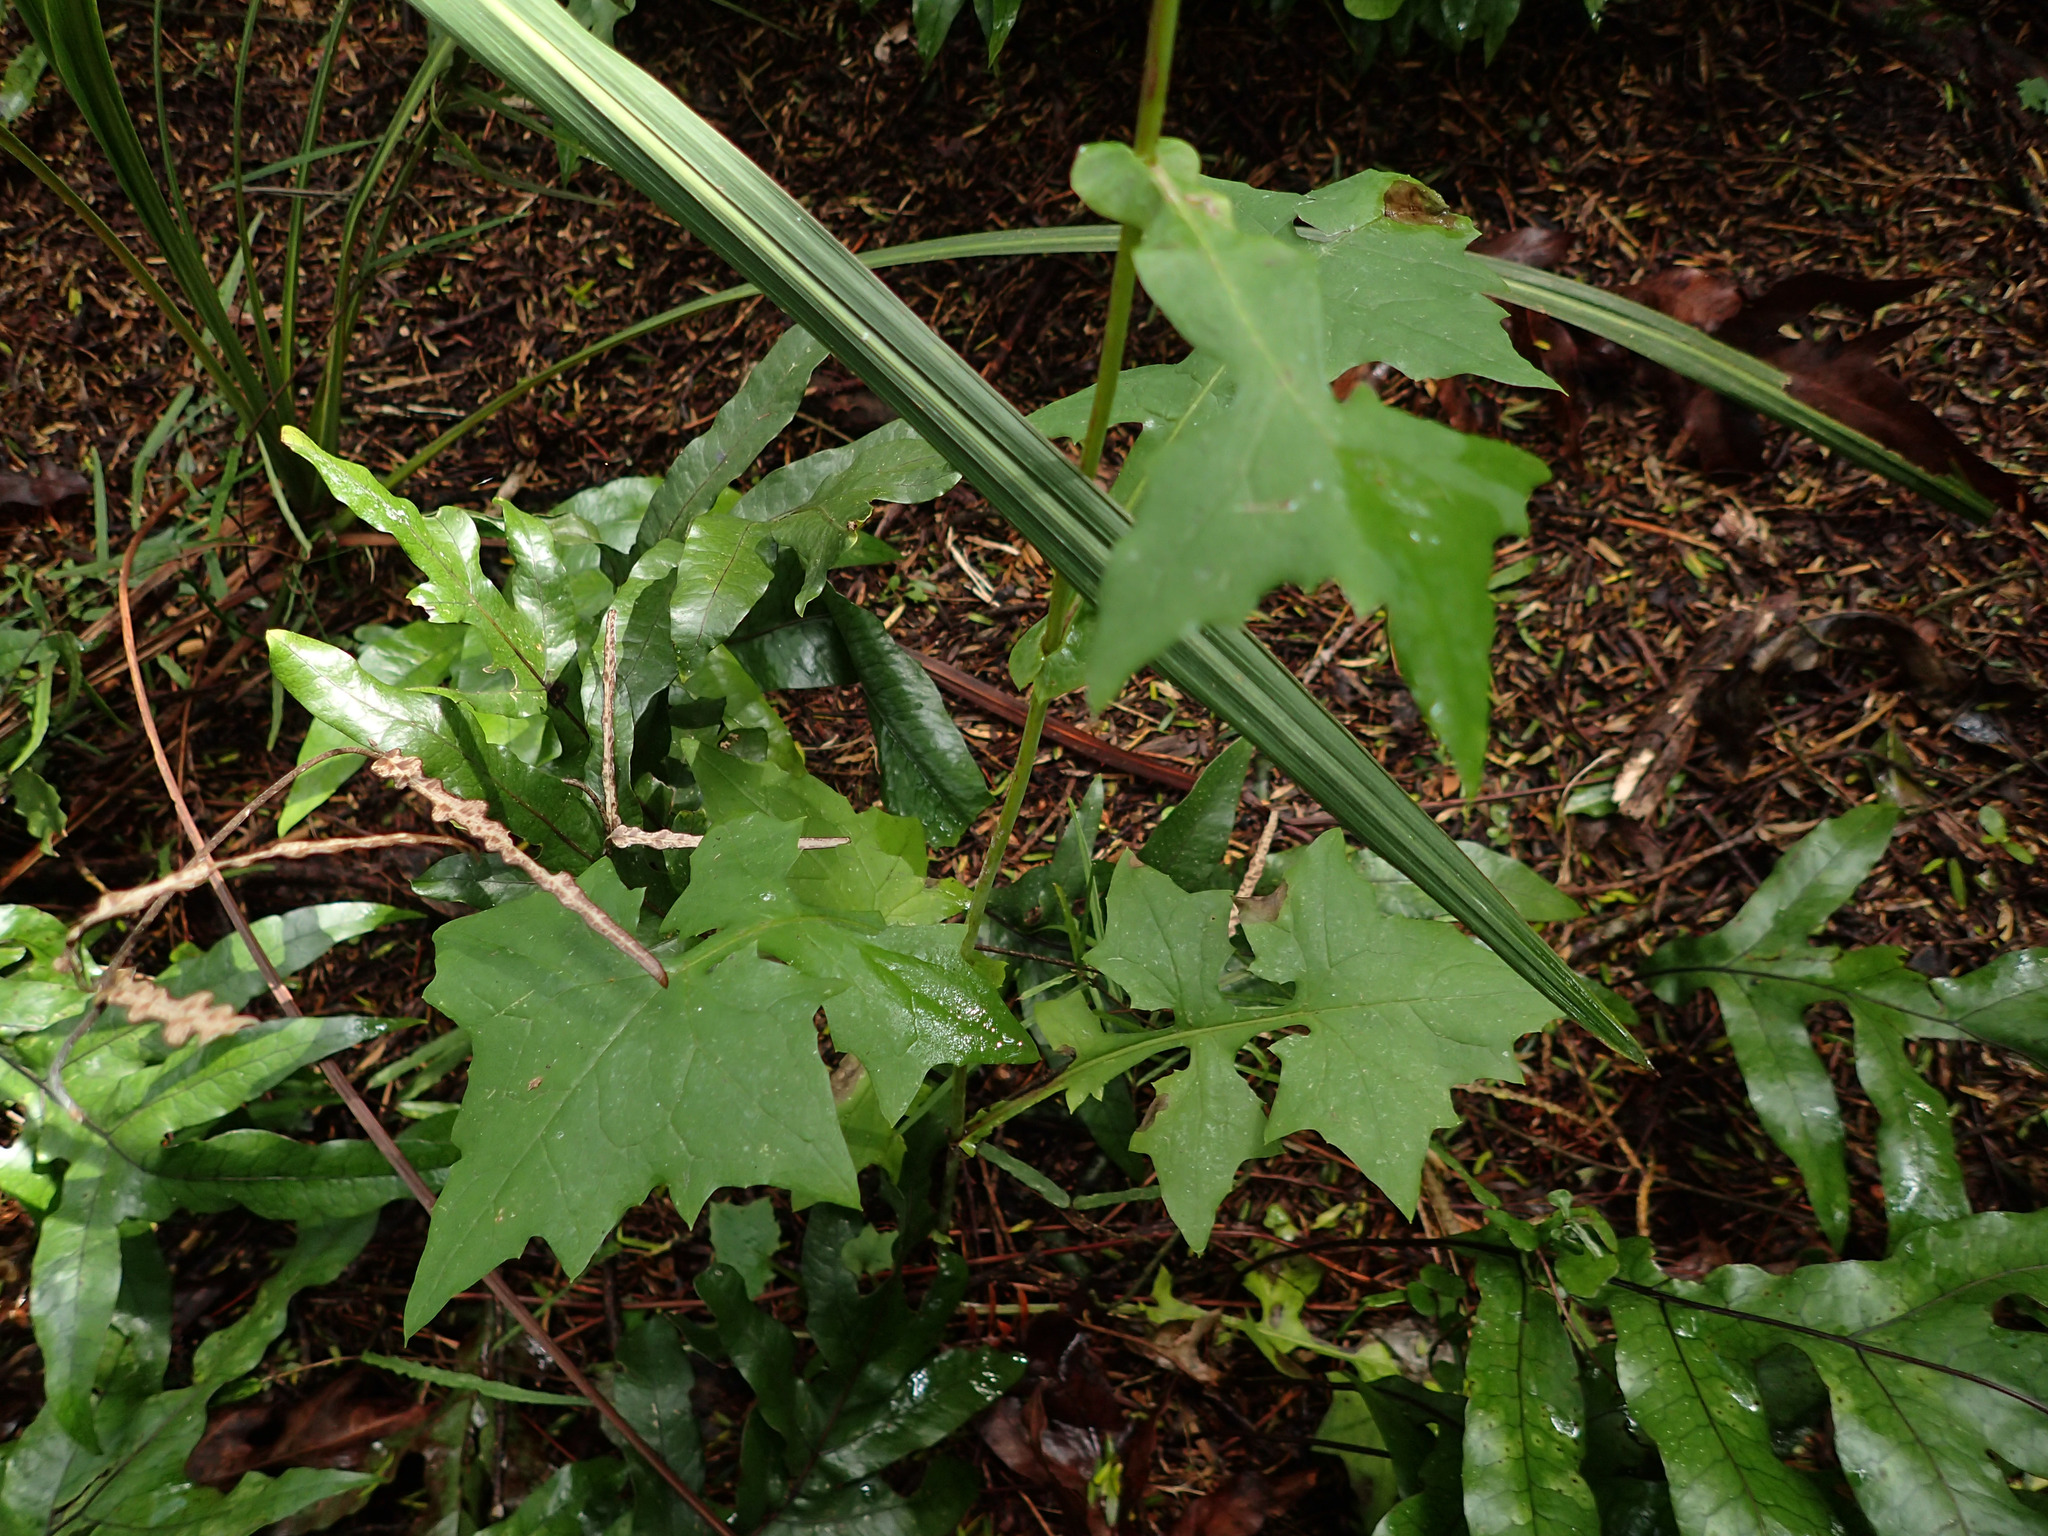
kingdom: Plantae
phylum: Tracheophyta
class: Magnoliopsida
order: Asterales
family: Asteraceae
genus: Mycelis
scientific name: Mycelis muralis
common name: Wall lettuce
